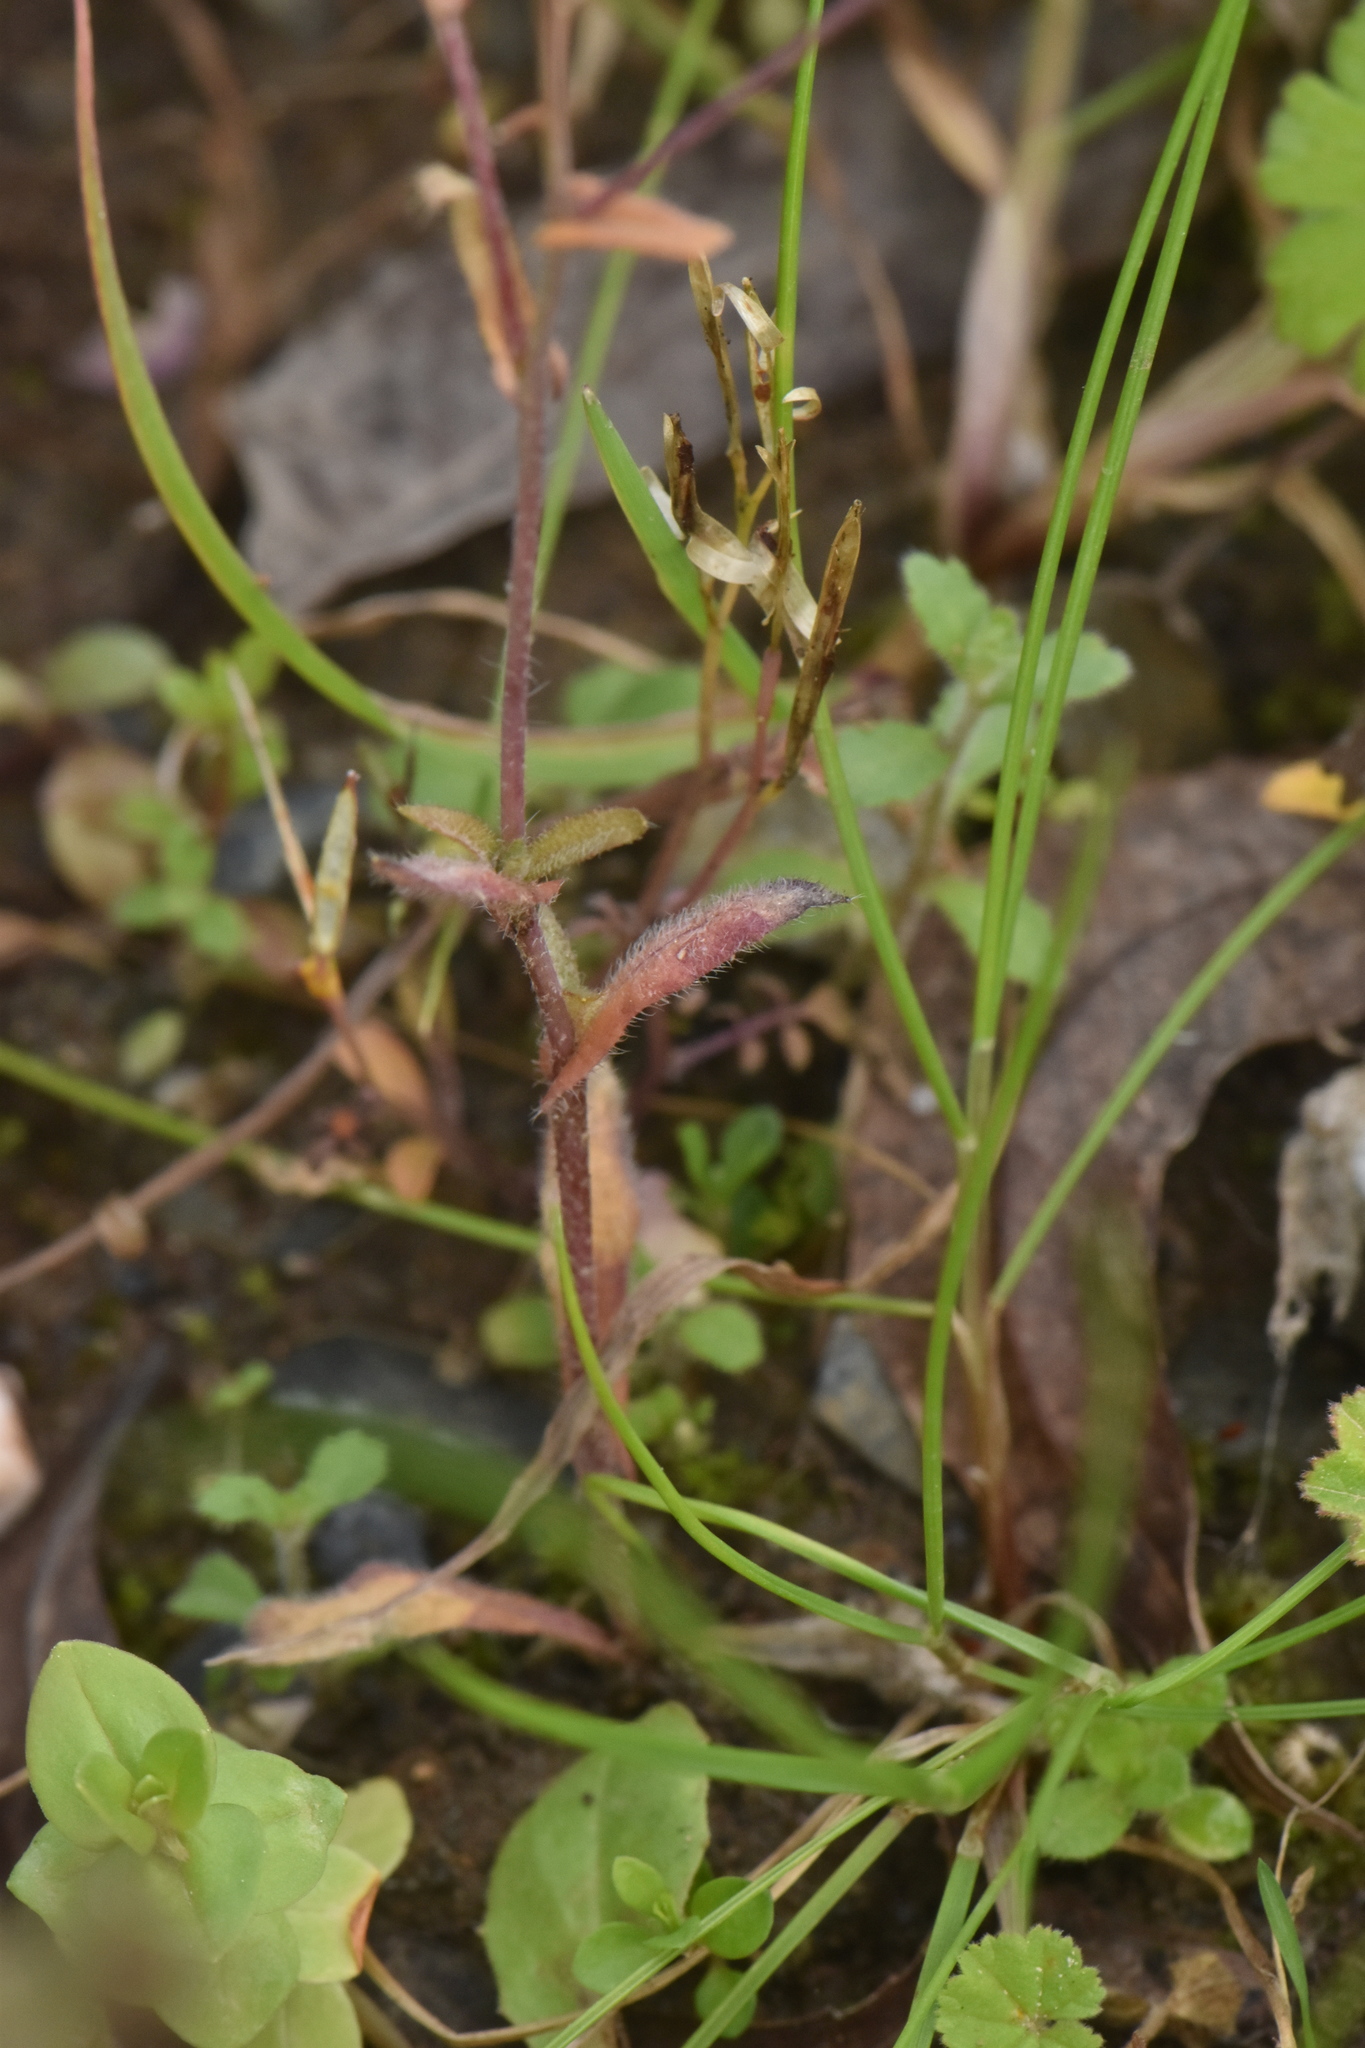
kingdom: Plantae
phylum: Tracheophyta
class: Magnoliopsida
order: Brassicales
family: Brassicaceae
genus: Capsella
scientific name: Capsella bursa-pastoris
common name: Shepherd's purse
